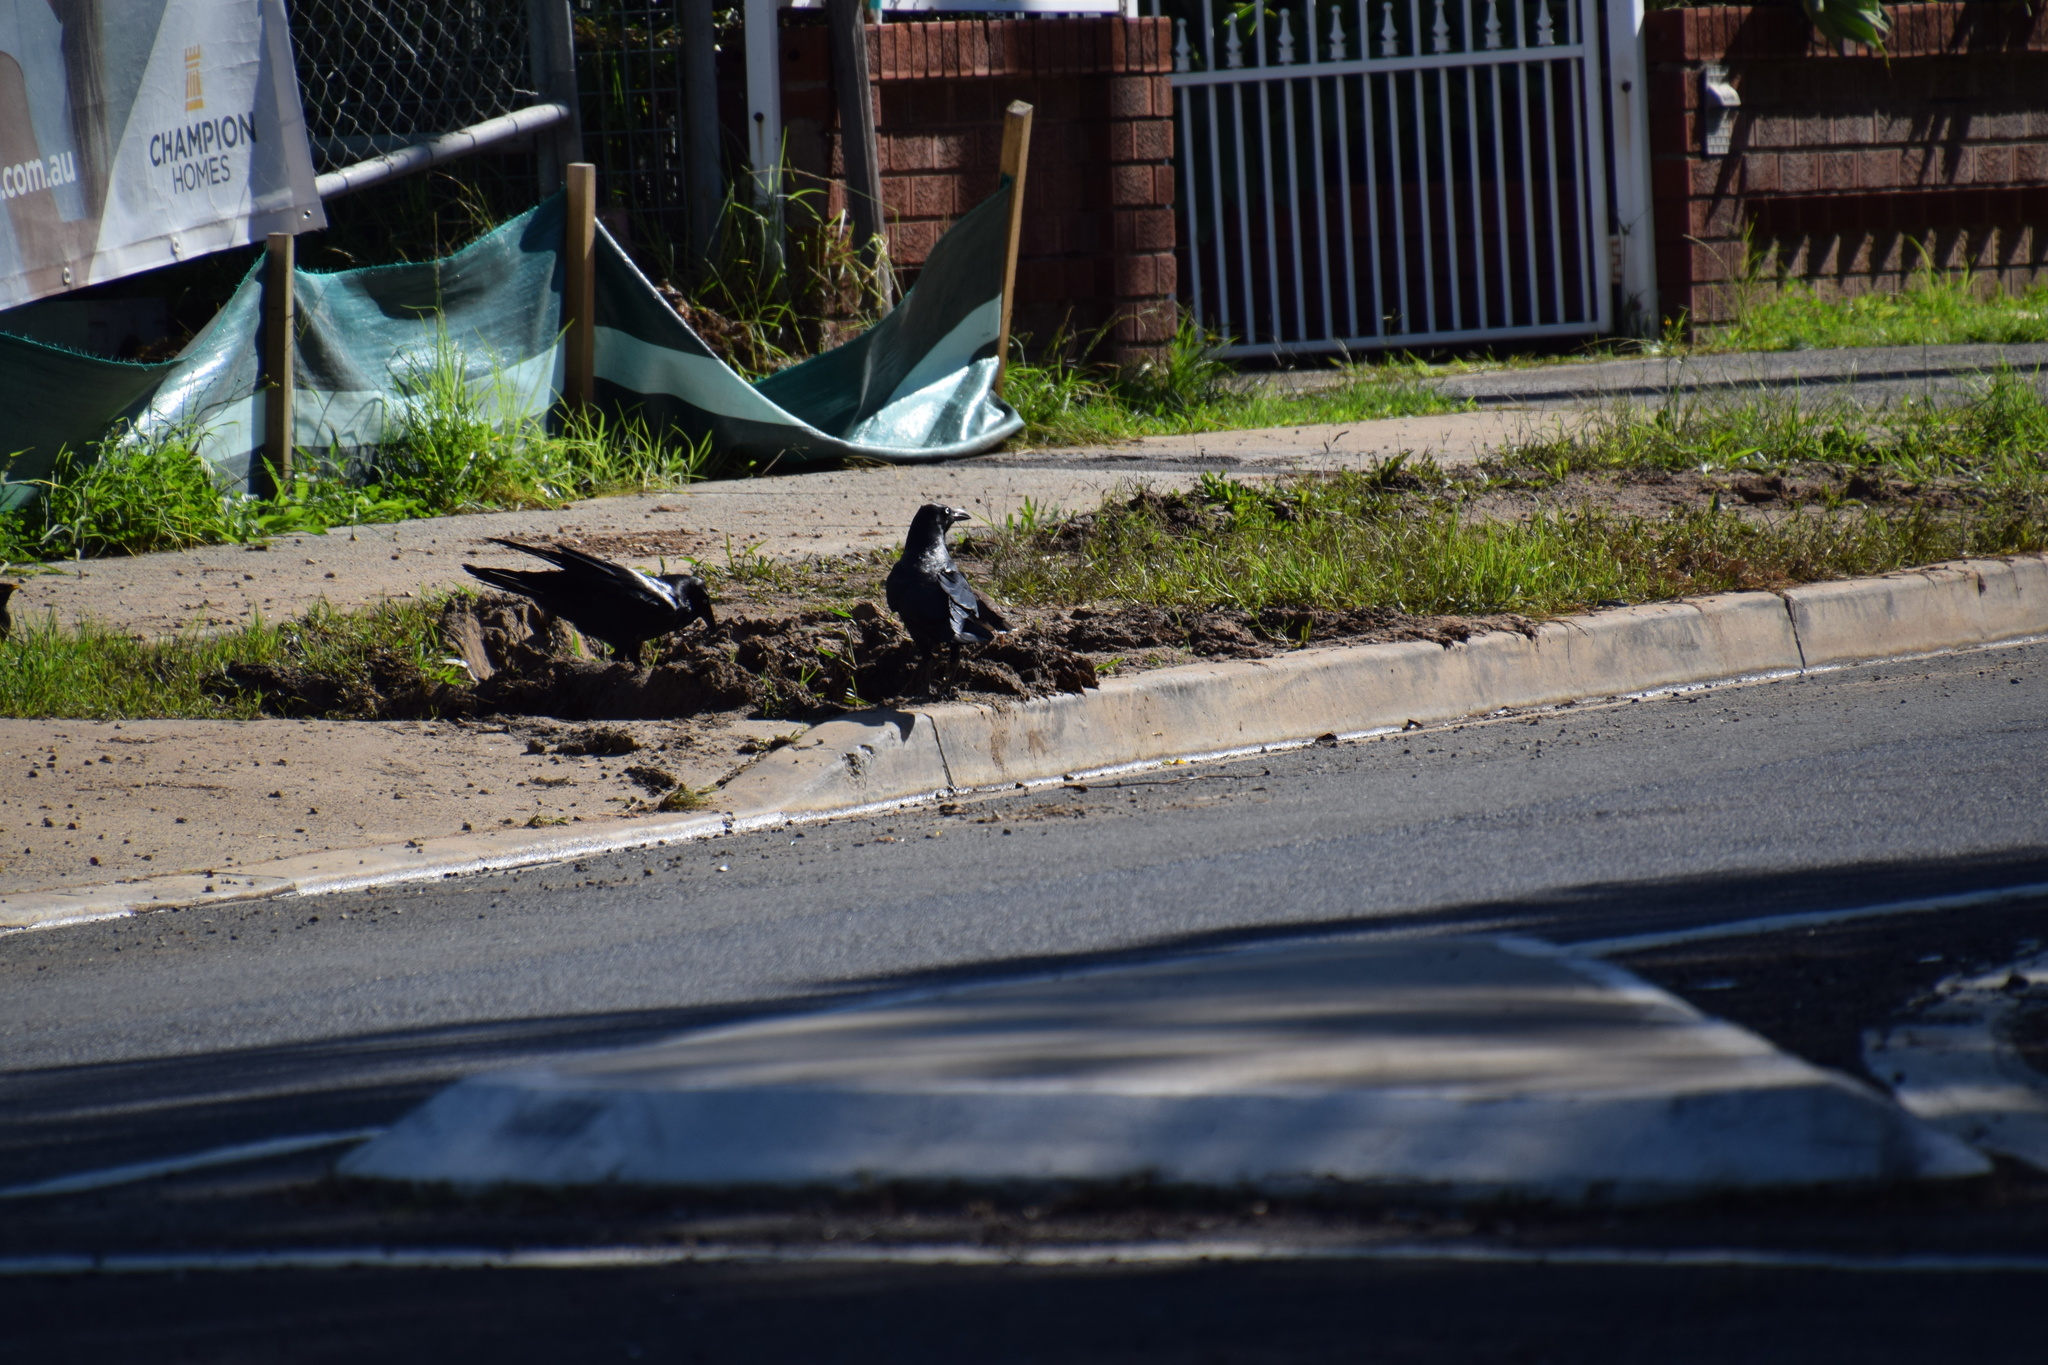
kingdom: Animalia
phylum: Chordata
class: Aves
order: Passeriformes
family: Corvidae
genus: Corvus
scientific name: Corvus coronoides
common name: Australian raven
